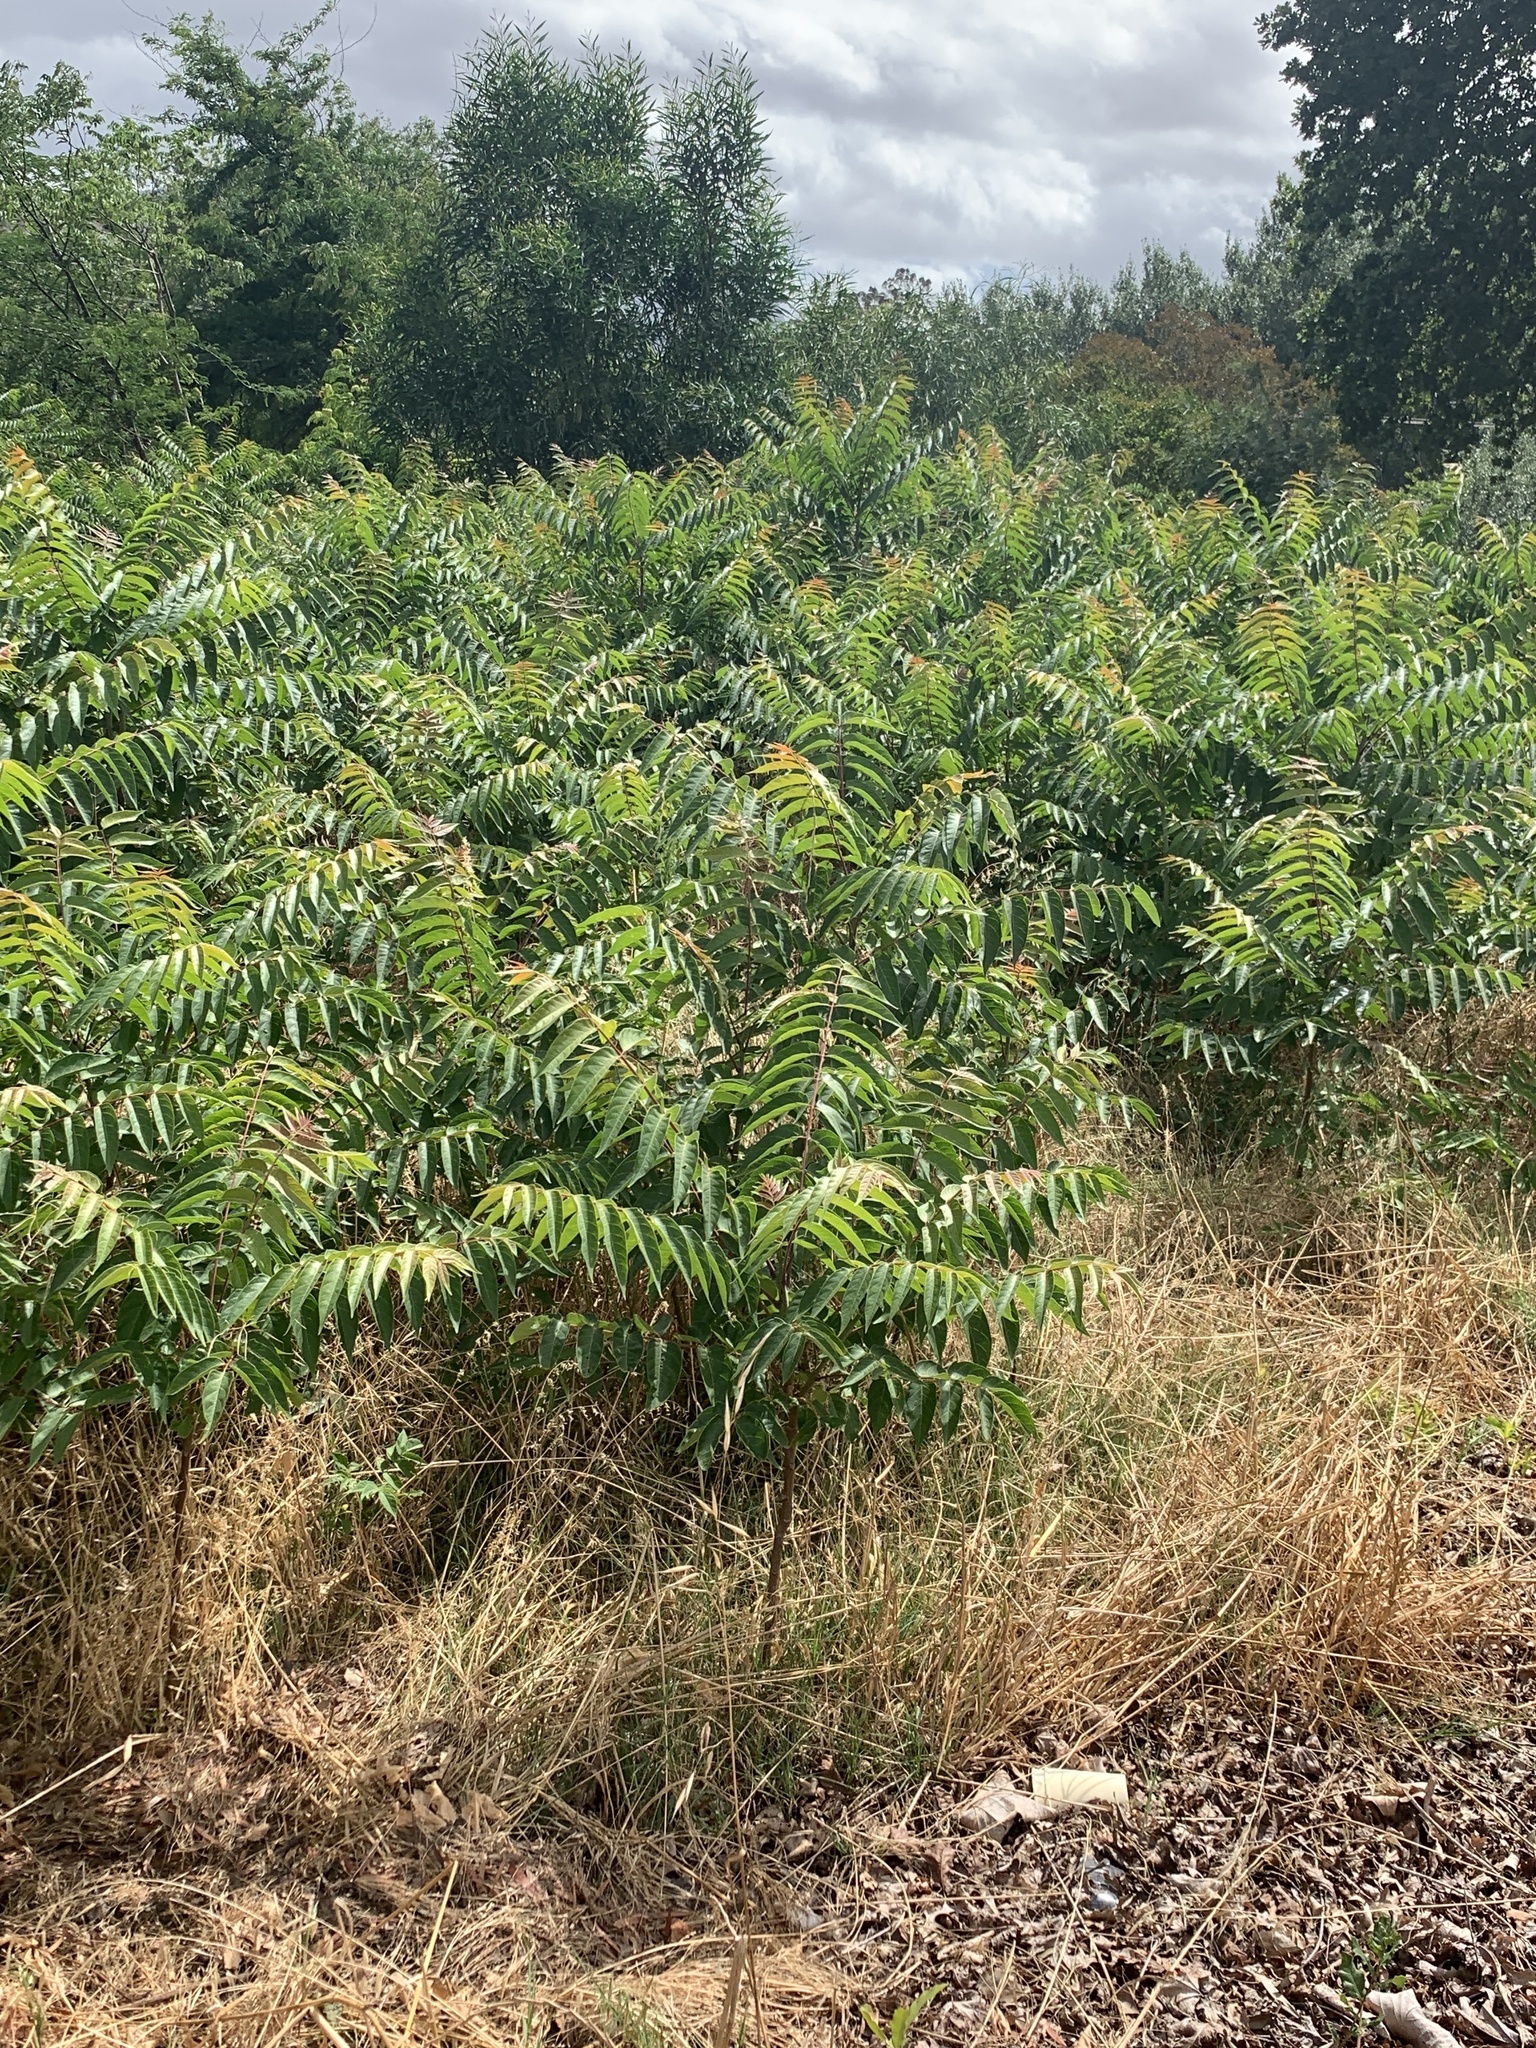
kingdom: Plantae
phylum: Tracheophyta
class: Magnoliopsida
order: Sapindales
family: Simaroubaceae
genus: Ailanthus
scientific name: Ailanthus altissima
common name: Tree-of-heaven
